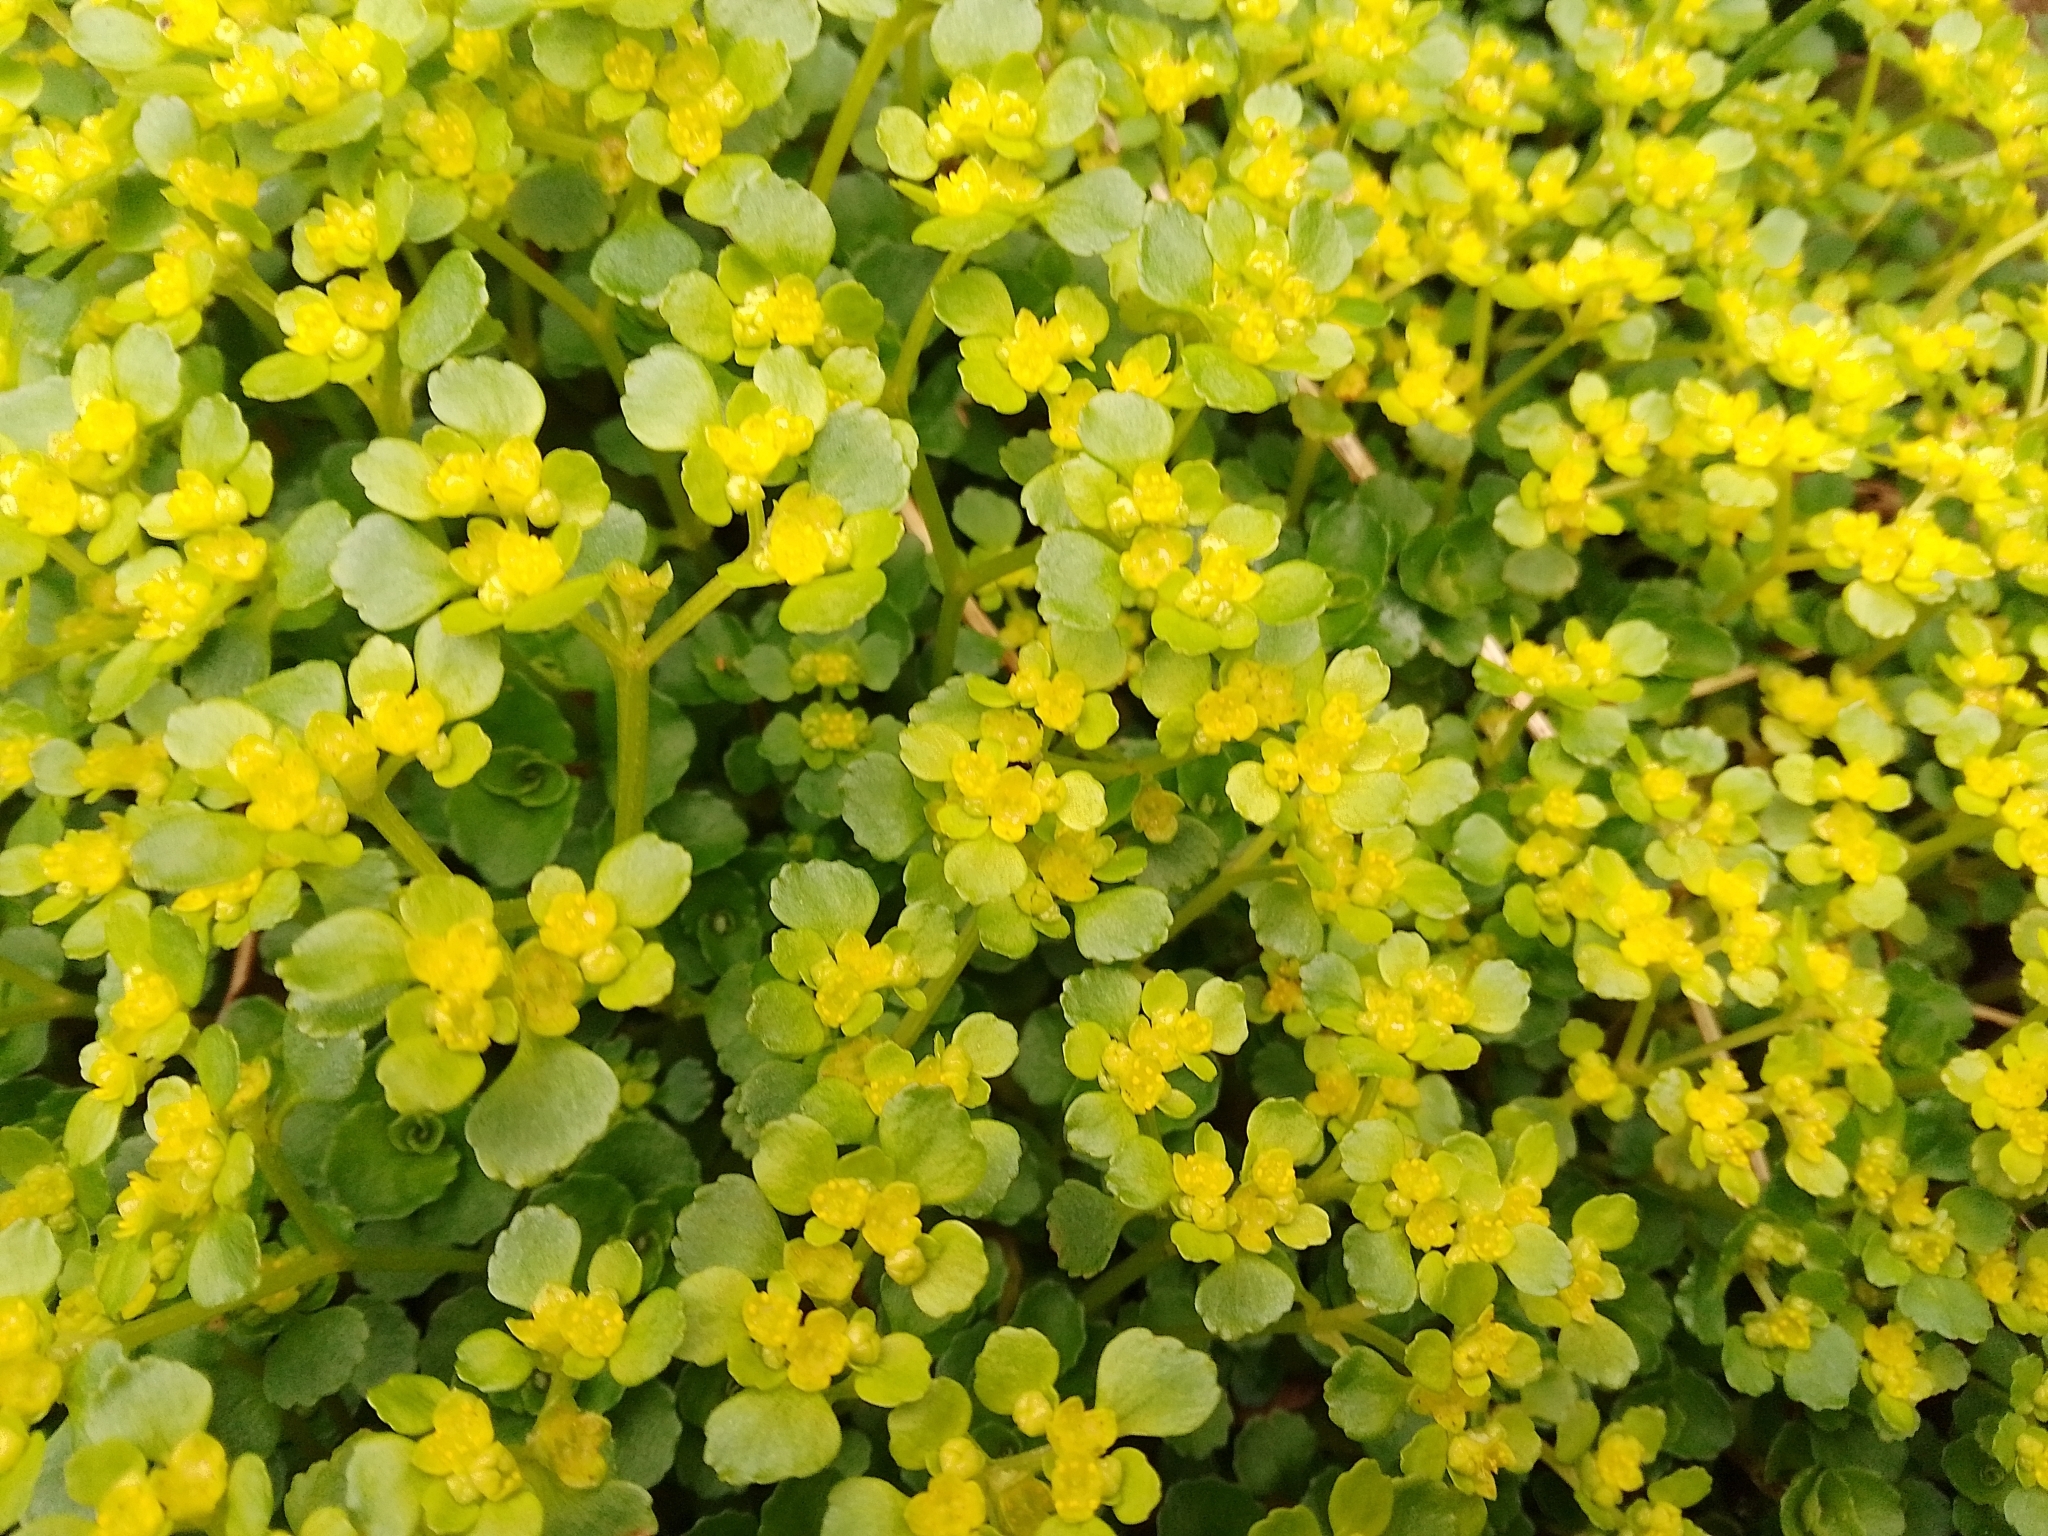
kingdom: Plantae
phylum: Tracheophyta
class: Magnoliopsida
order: Saxifragales
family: Saxifragaceae
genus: Chrysosplenium
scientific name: Chrysosplenium oppositifolium
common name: Opposite-leaved golden-saxifrage
